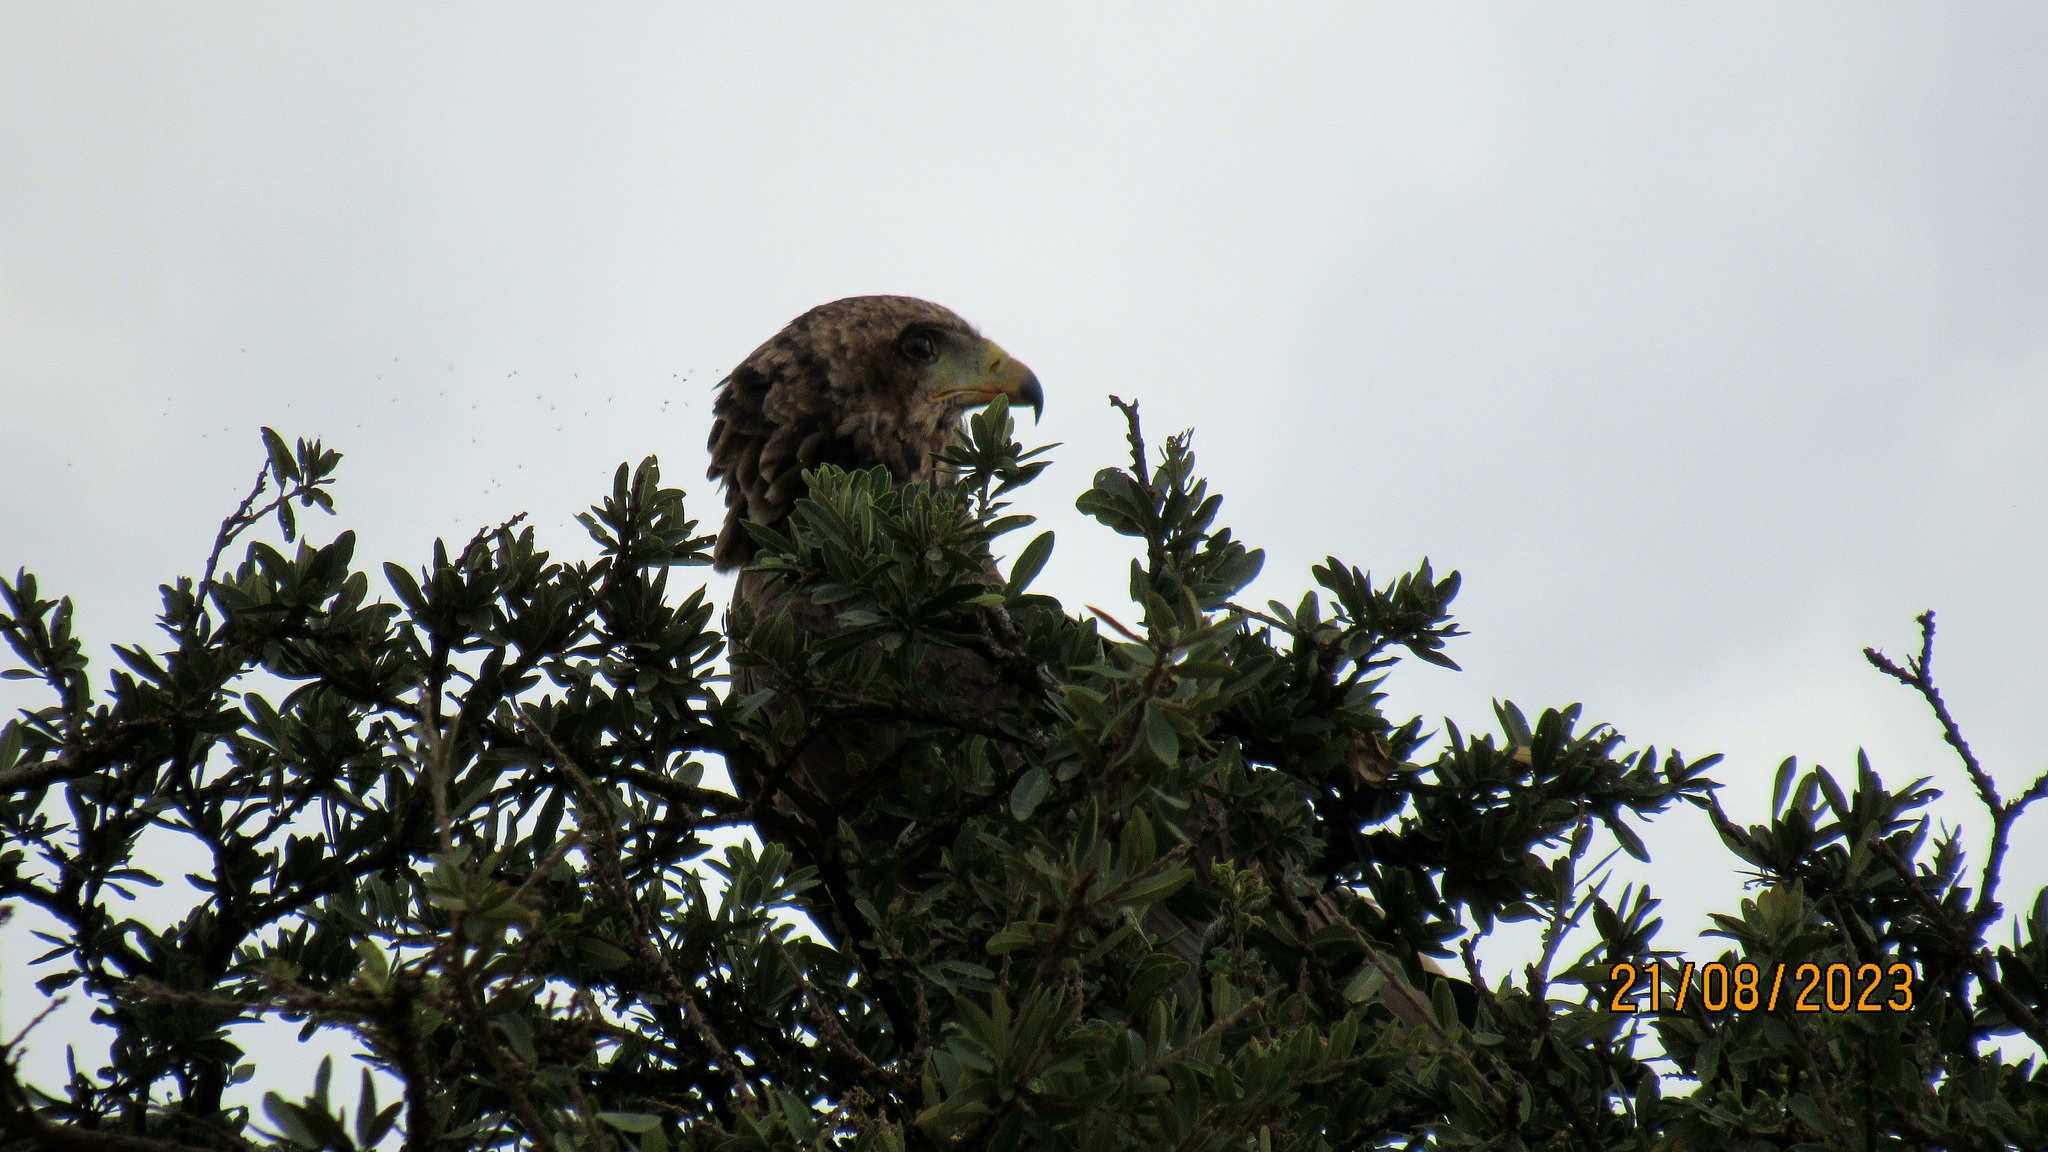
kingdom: Animalia
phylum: Chordata
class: Aves
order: Accipitriformes
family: Accipitridae
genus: Terathopius
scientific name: Terathopius ecaudatus
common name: Bateleur
